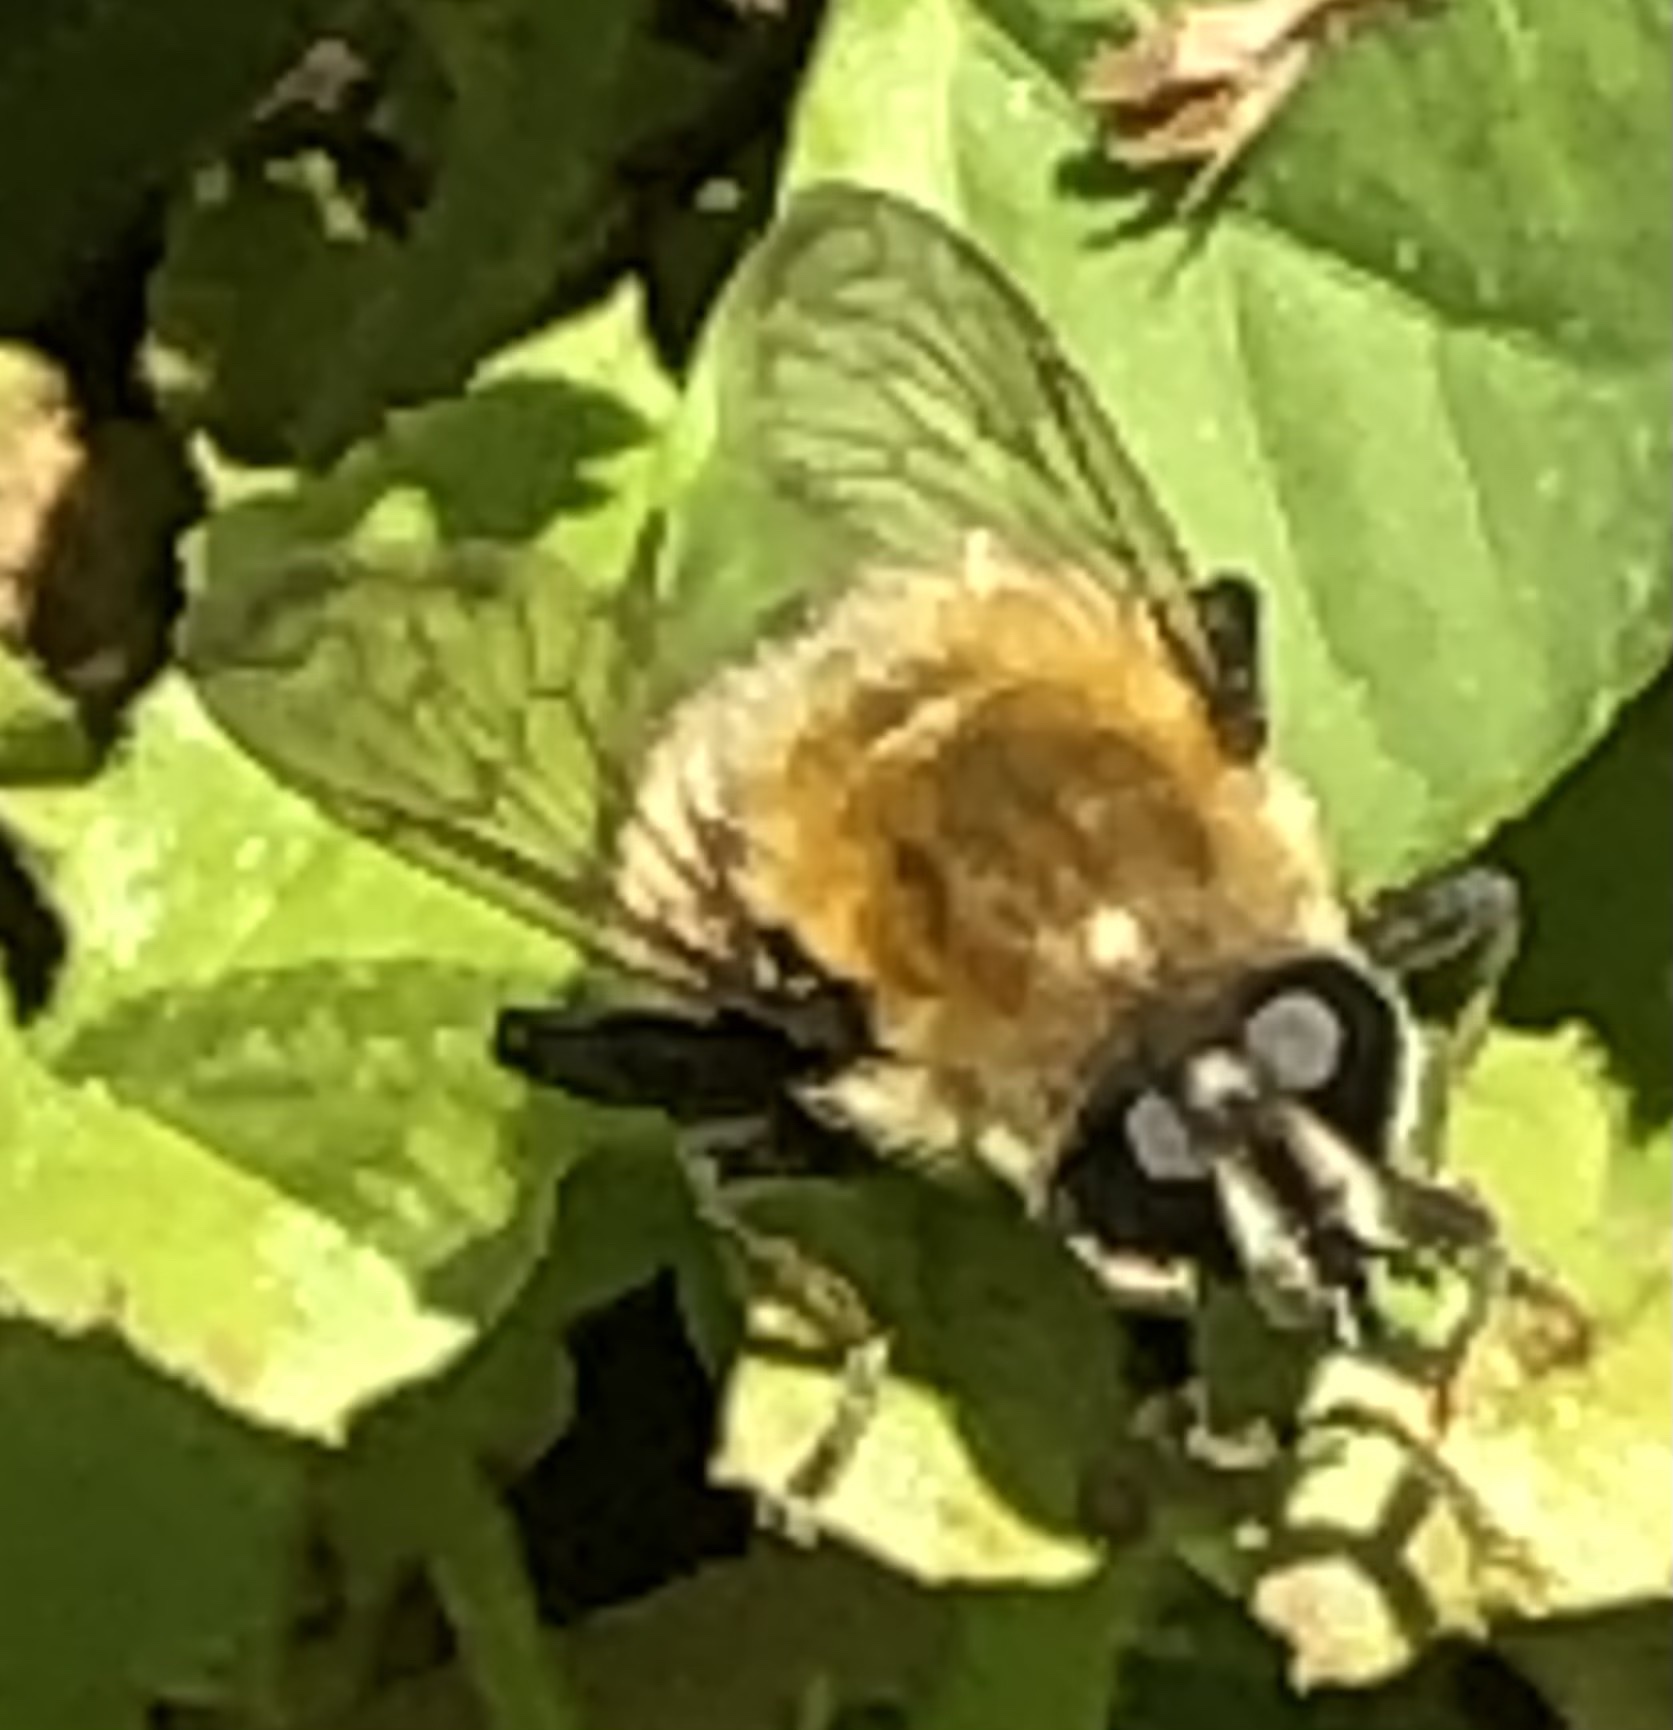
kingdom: Animalia
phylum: Arthropoda
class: Insecta
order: Diptera
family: Syrphidae
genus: Merodon
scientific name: Merodon equestris
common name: Greater bulb-fly
